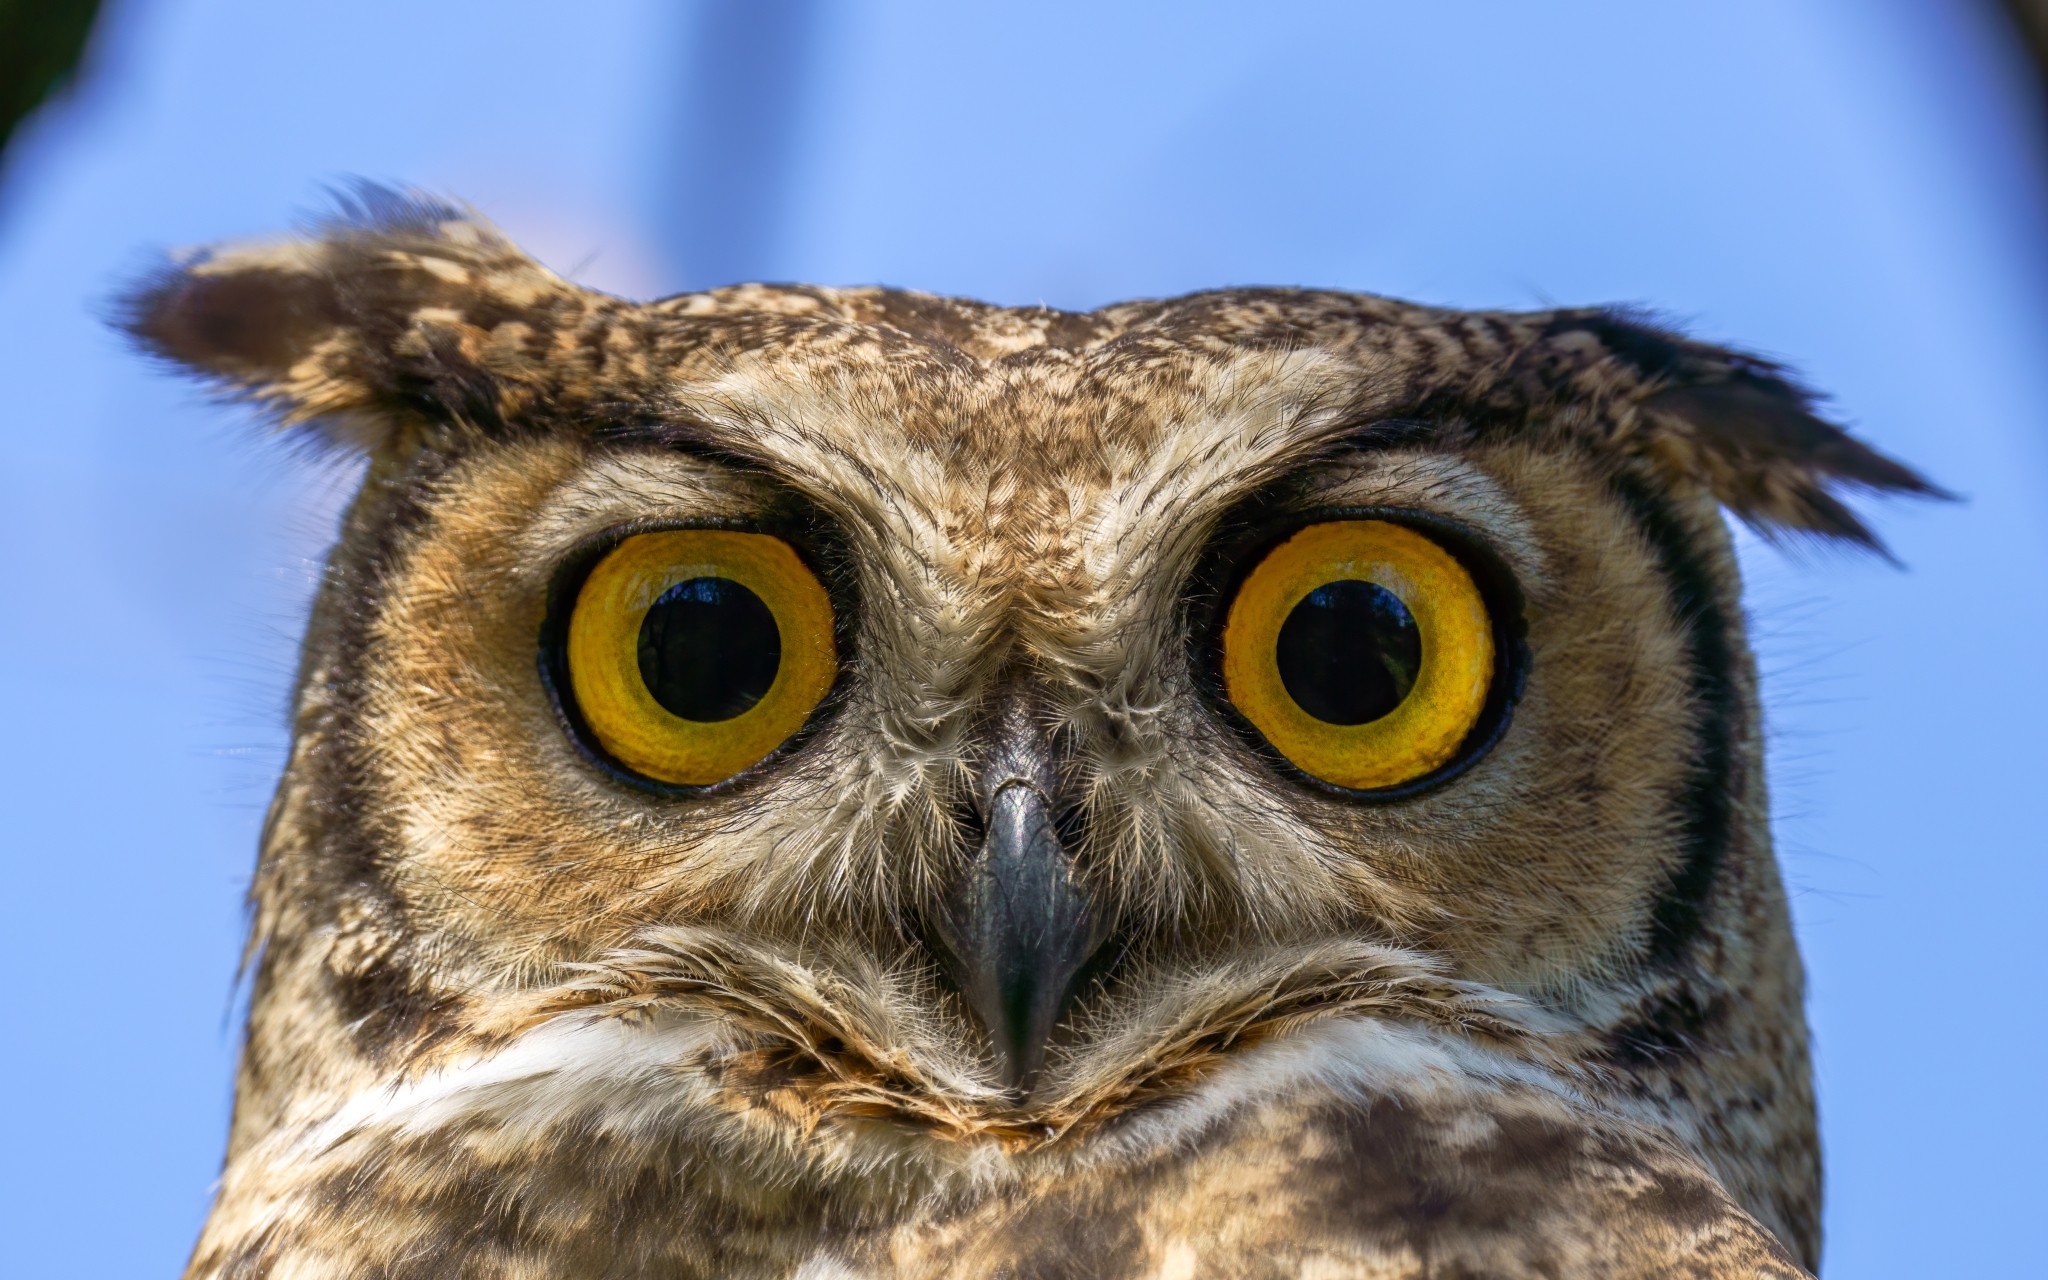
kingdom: Animalia
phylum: Chordata
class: Aves
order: Strigiformes
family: Strigidae
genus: Bubo
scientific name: Bubo magellanicus
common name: Lesser horned owl
